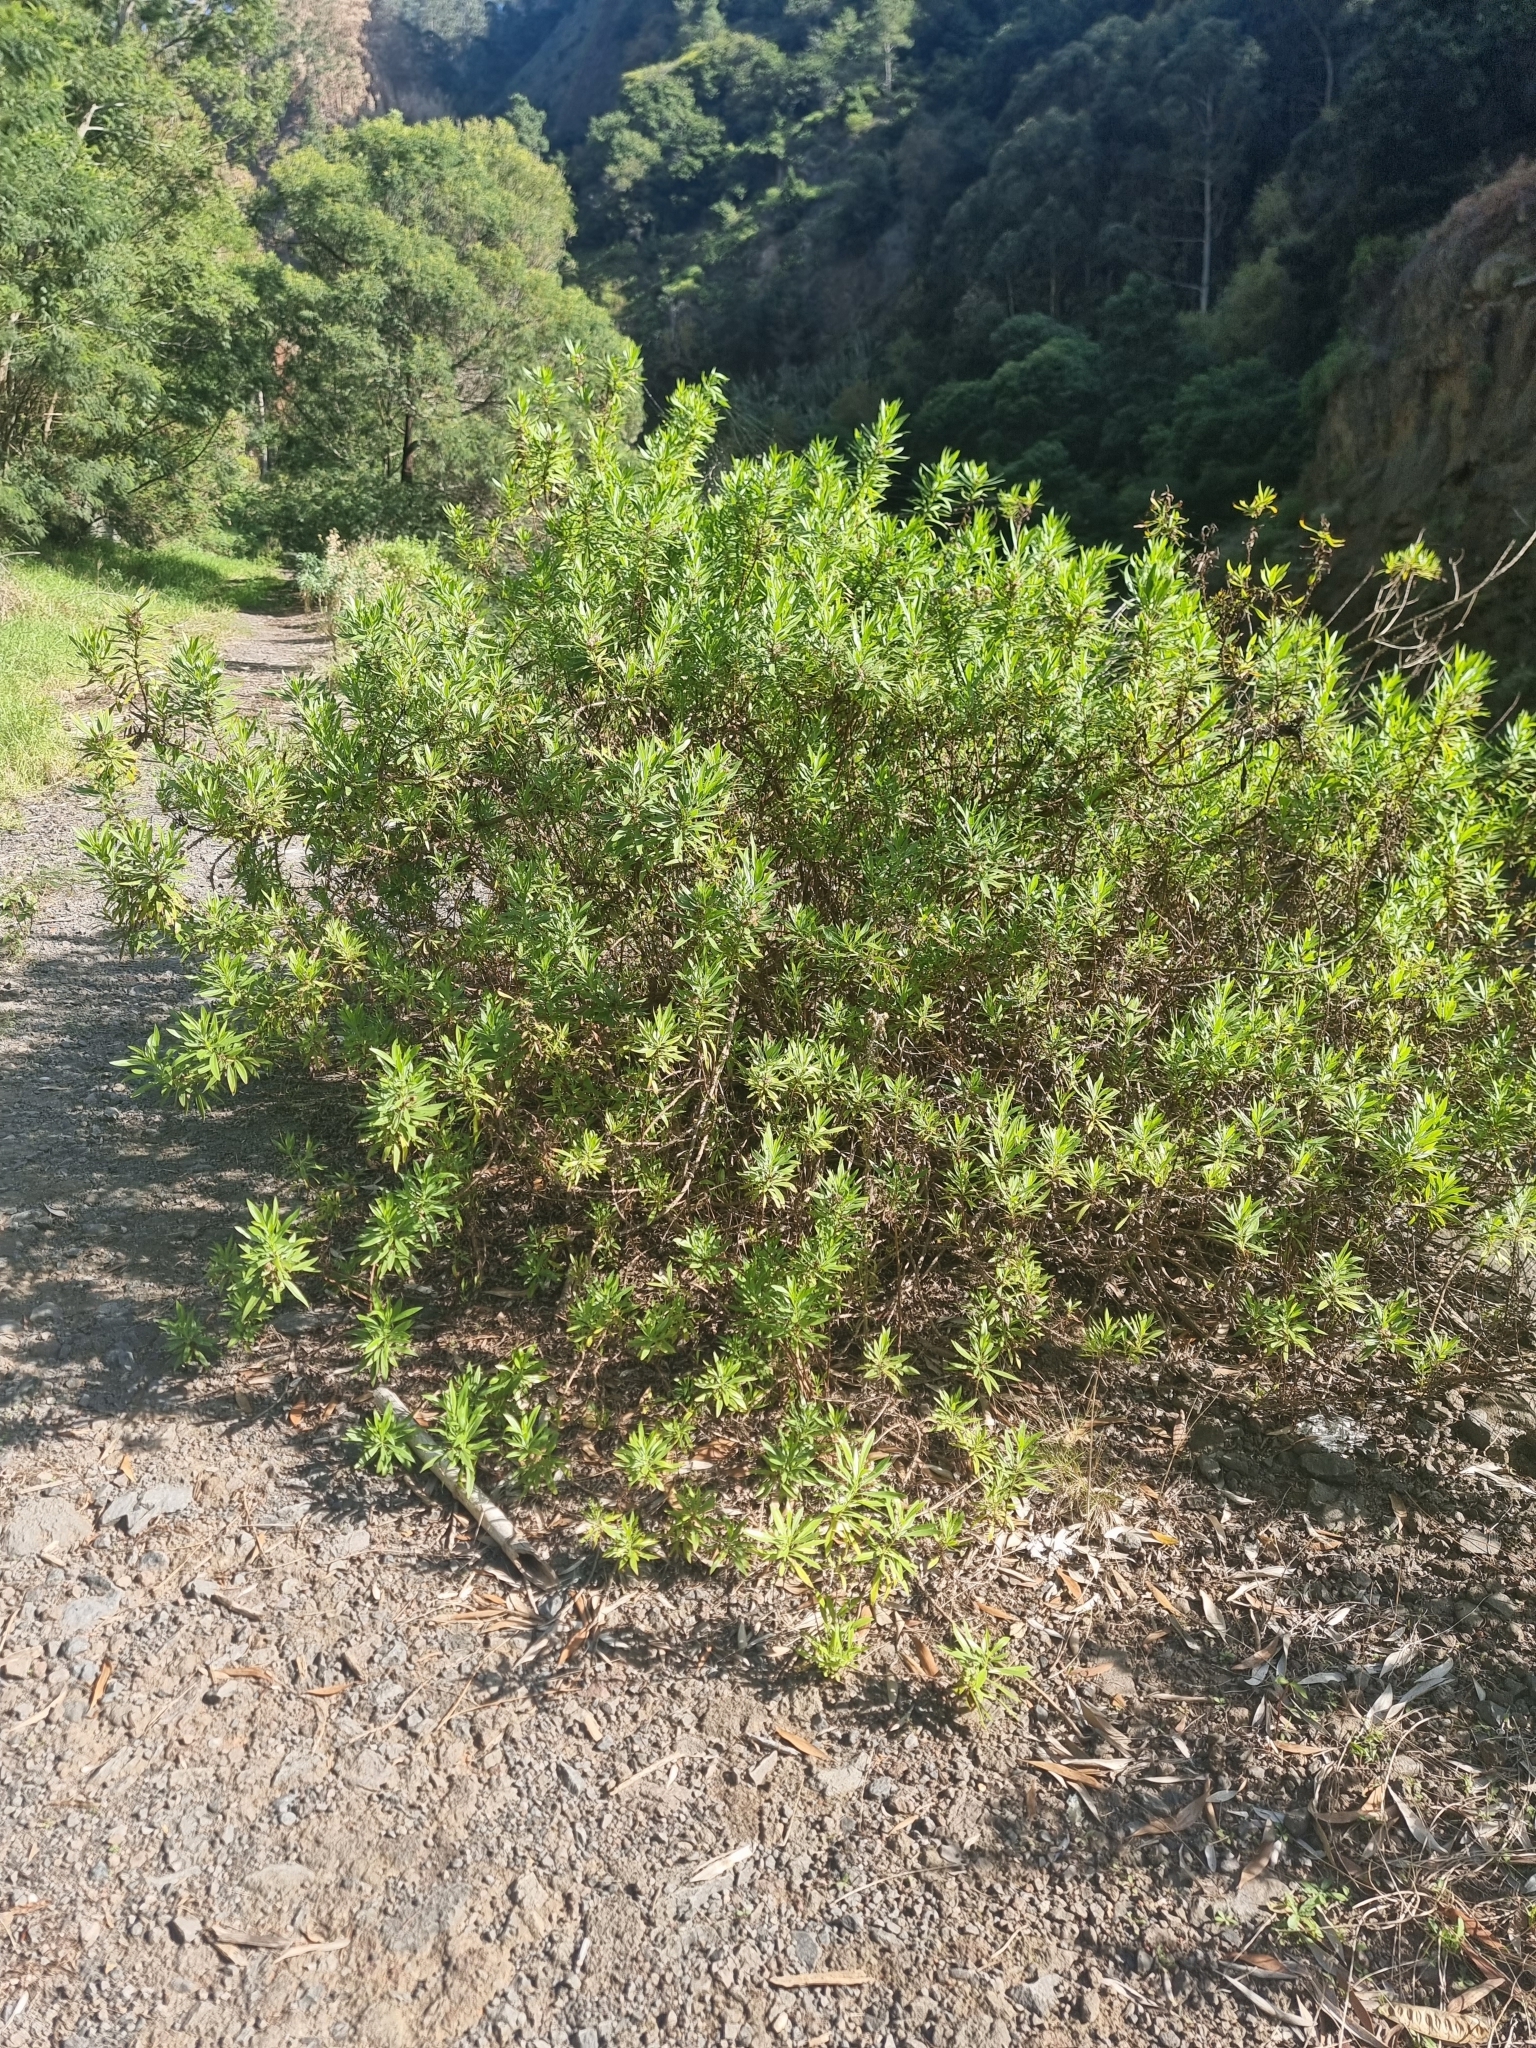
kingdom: Plantae
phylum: Tracheophyta
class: Magnoliopsida
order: Lamiales
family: Plantaginaceae
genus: Globularia
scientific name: Globularia salicina
